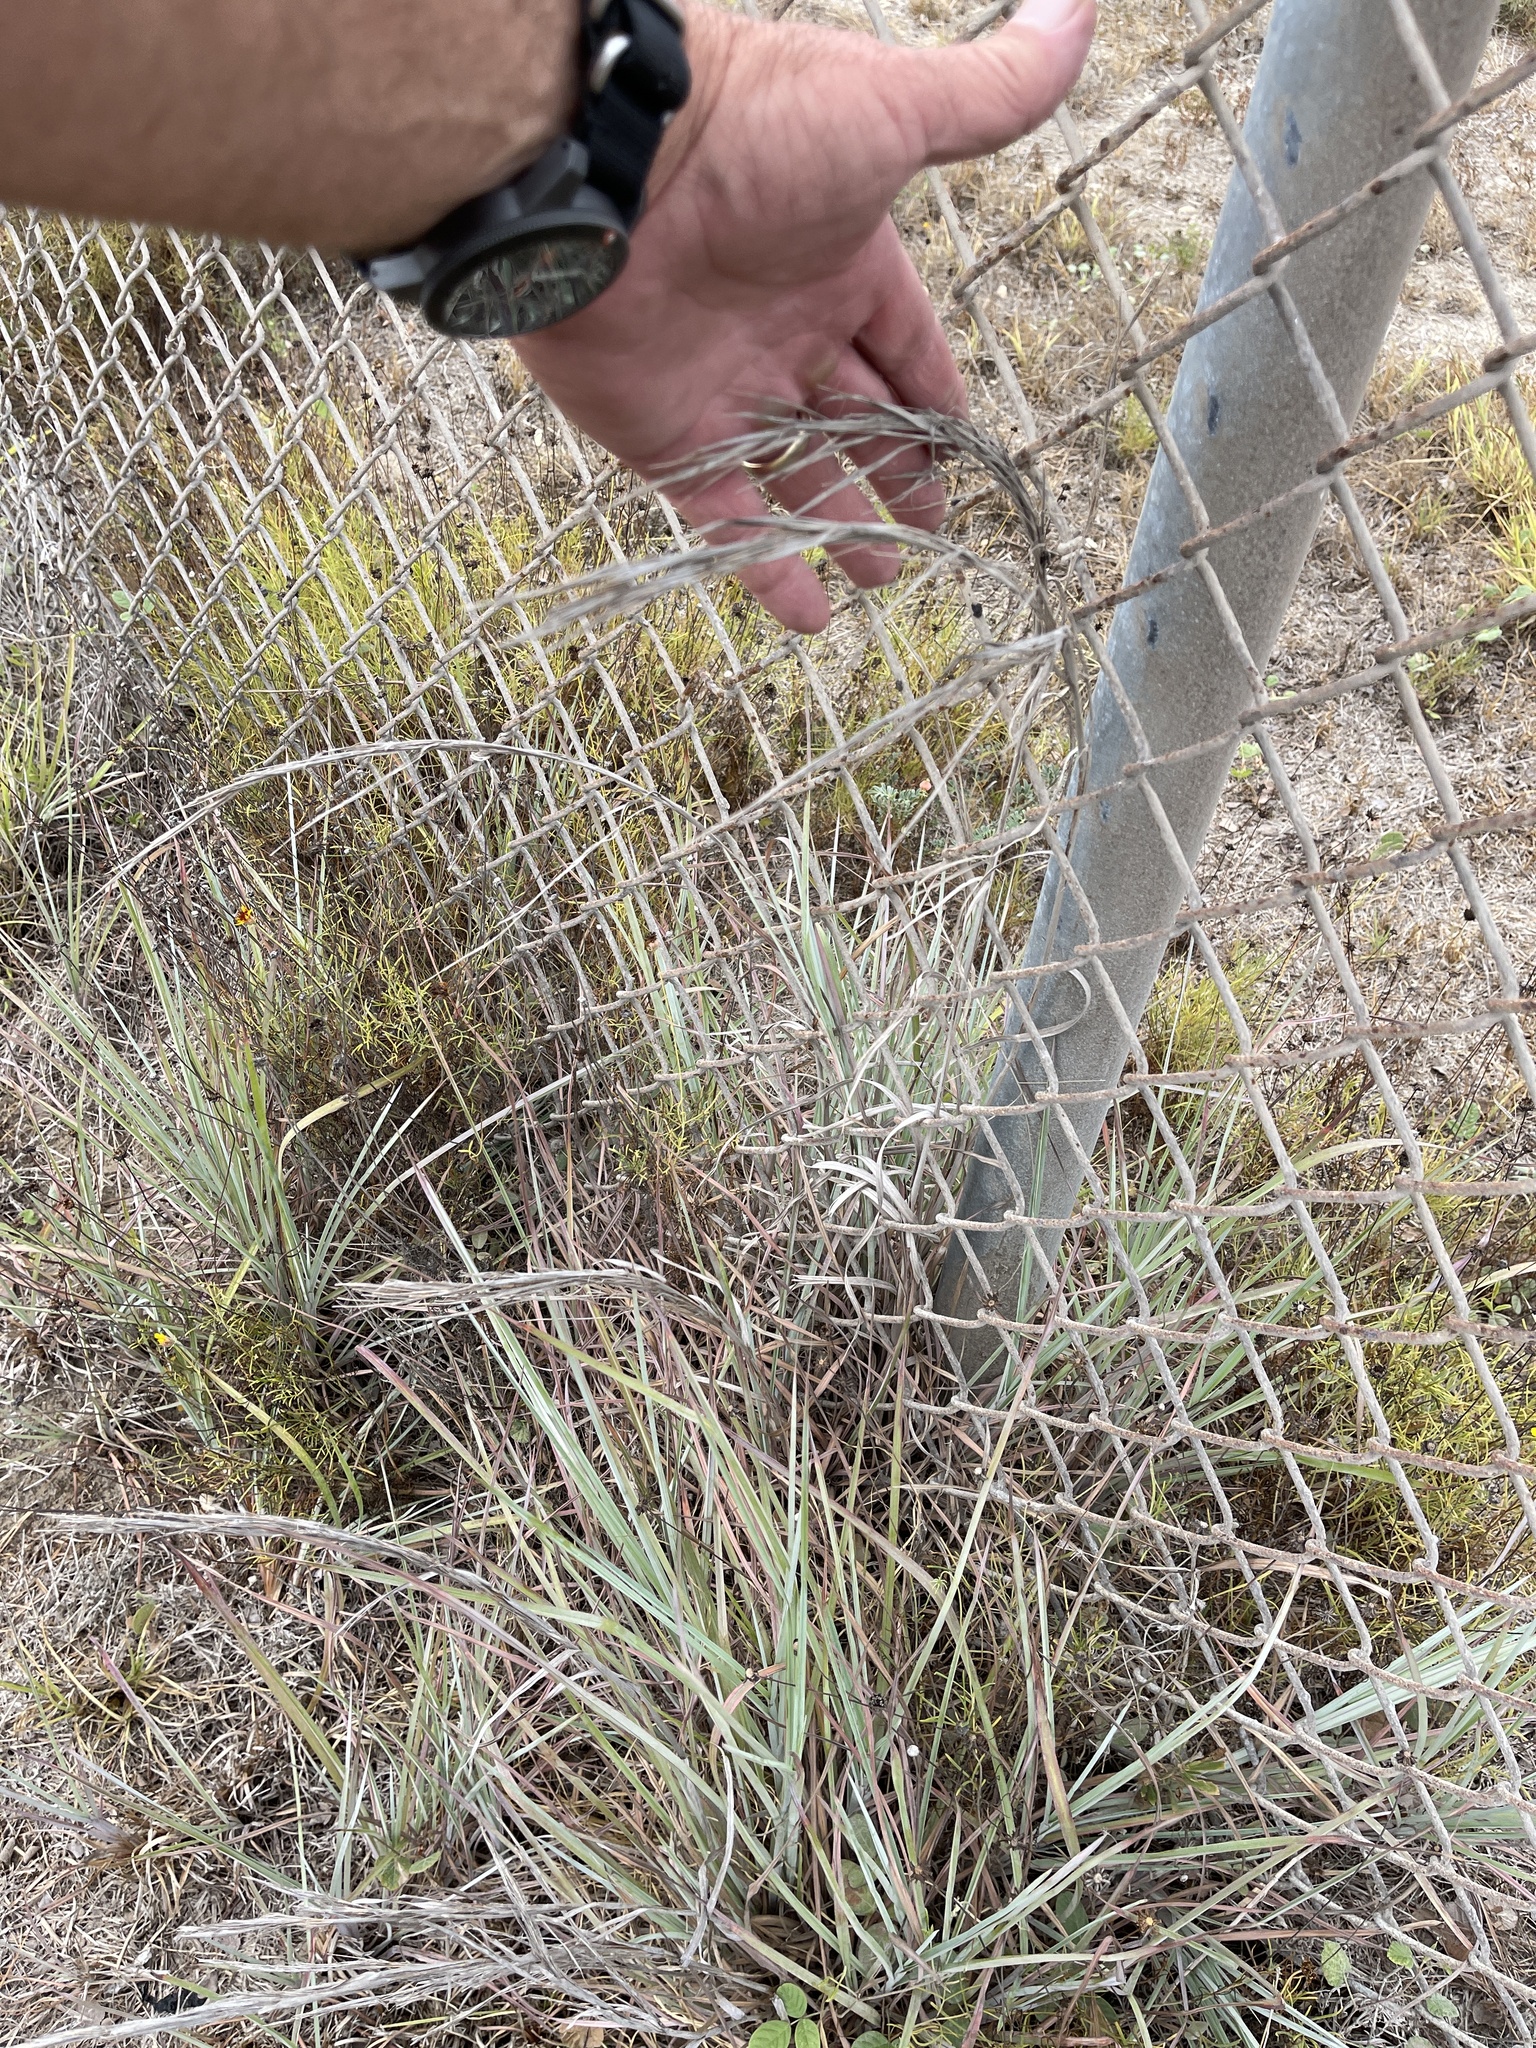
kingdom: Plantae
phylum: Tracheophyta
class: Liliopsida
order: Poales
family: Poaceae
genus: Schizachyrium
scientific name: Schizachyrium scoparium
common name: Little bluestem
